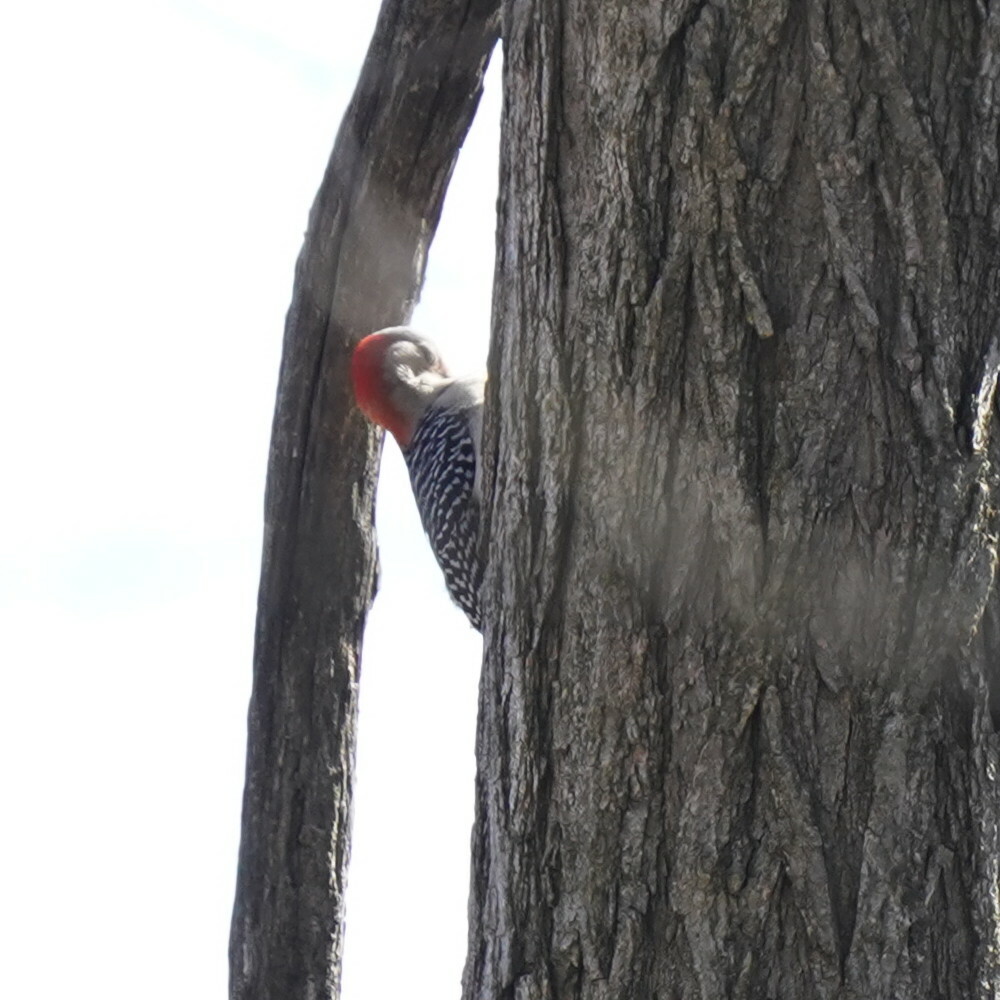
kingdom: Animalia
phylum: Chordata
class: Aves
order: Piciformes
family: Picidae
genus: Melanerpes
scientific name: Melanerpes carolinus
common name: Red-bellied woodpecker
